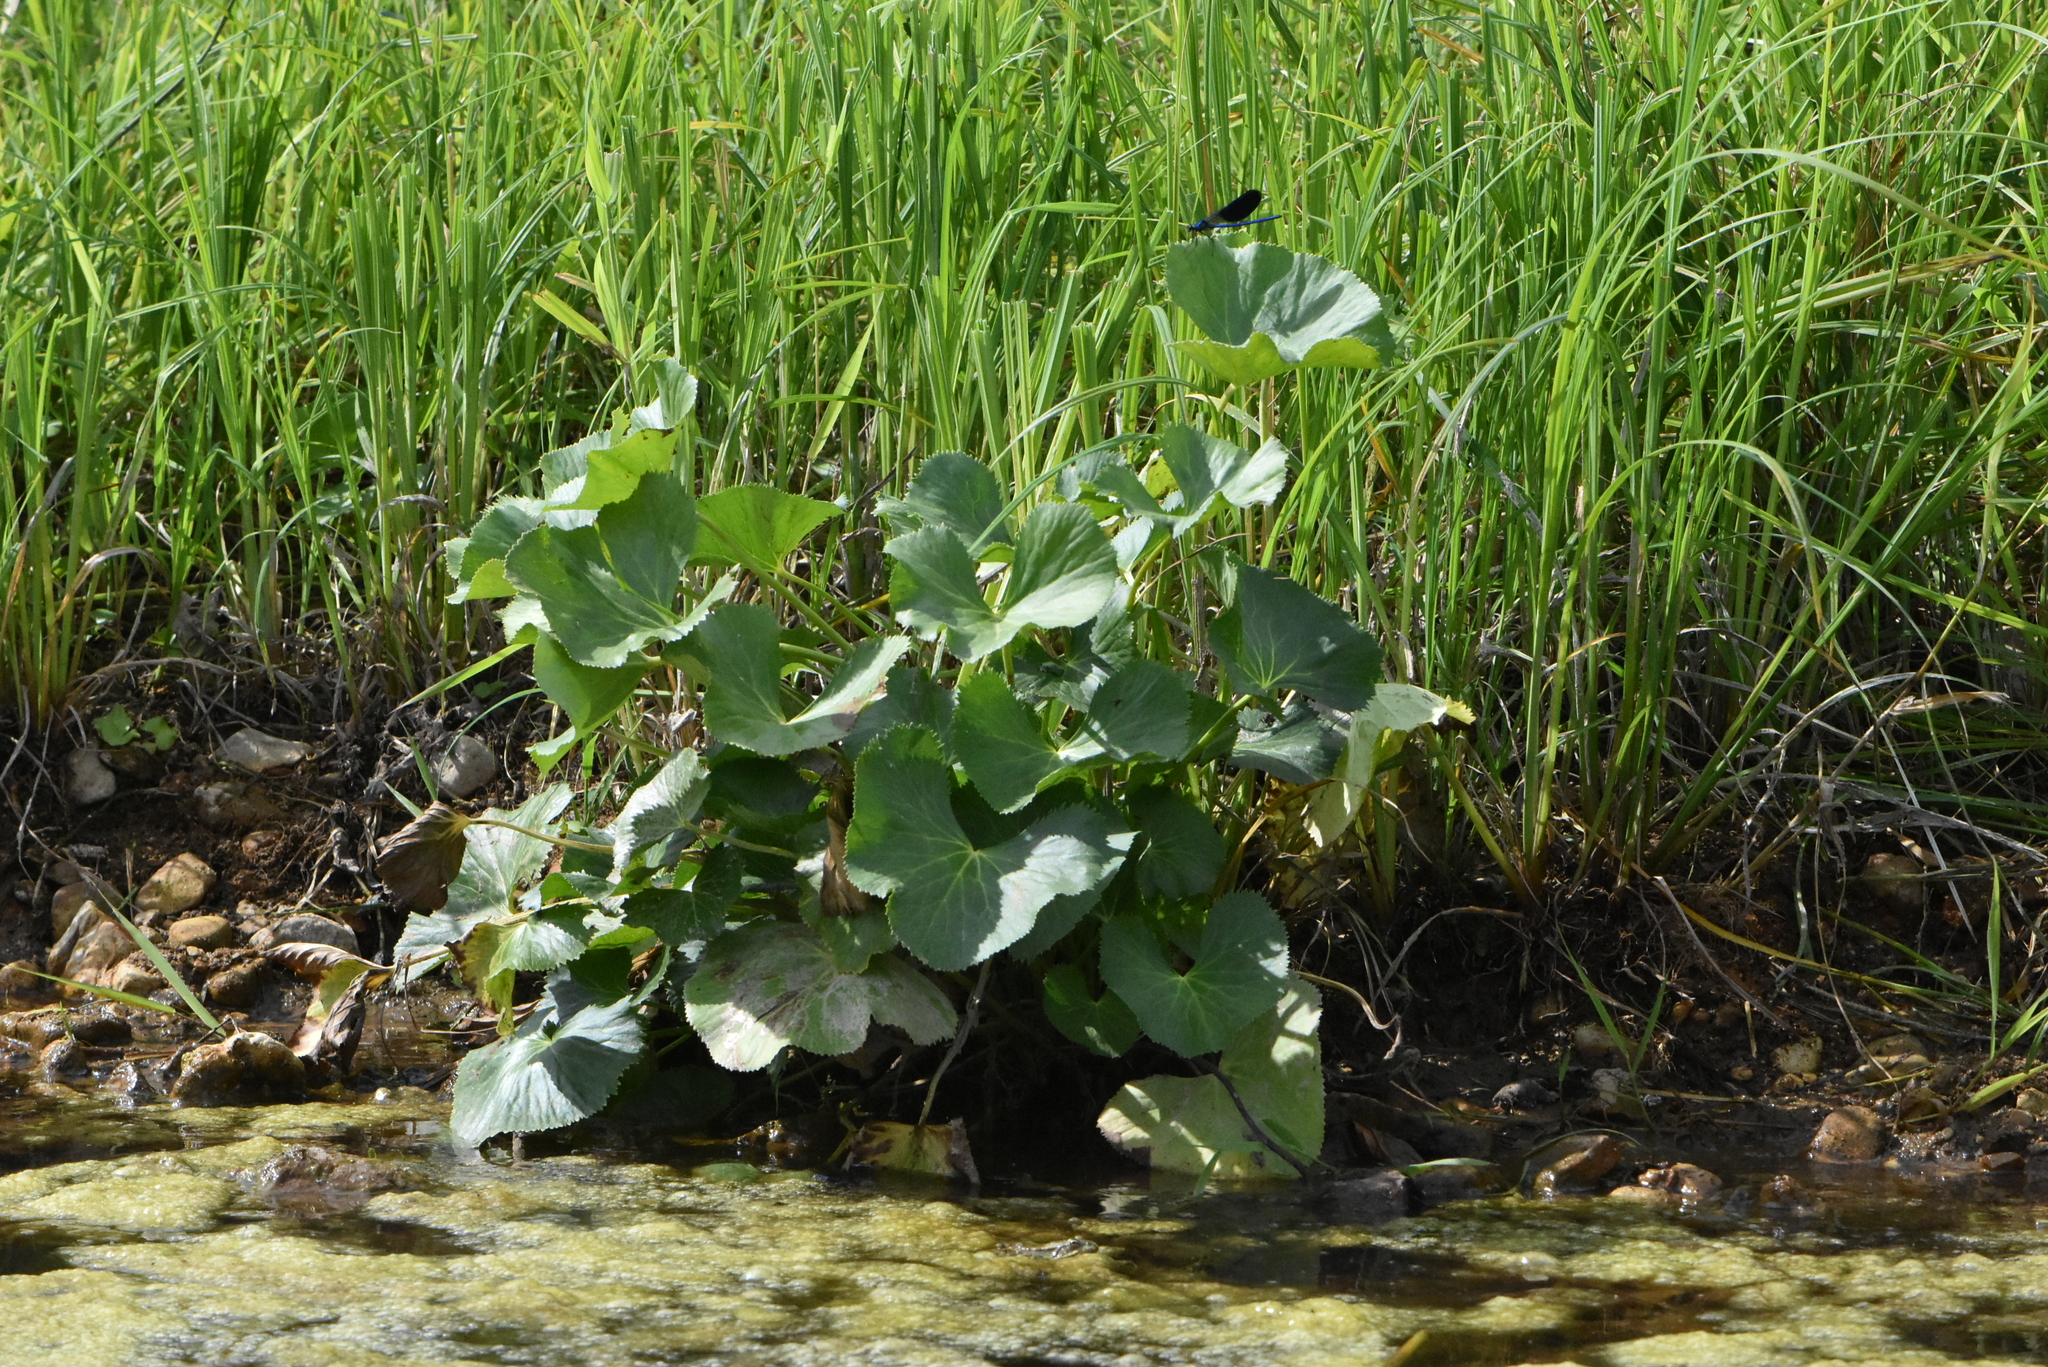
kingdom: Plantae
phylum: Tracheophyta
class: Magnoliopsida
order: Ranunculales
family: Ranunculaceae
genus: Caltha
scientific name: Caltha palustris
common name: Marsh marigold
